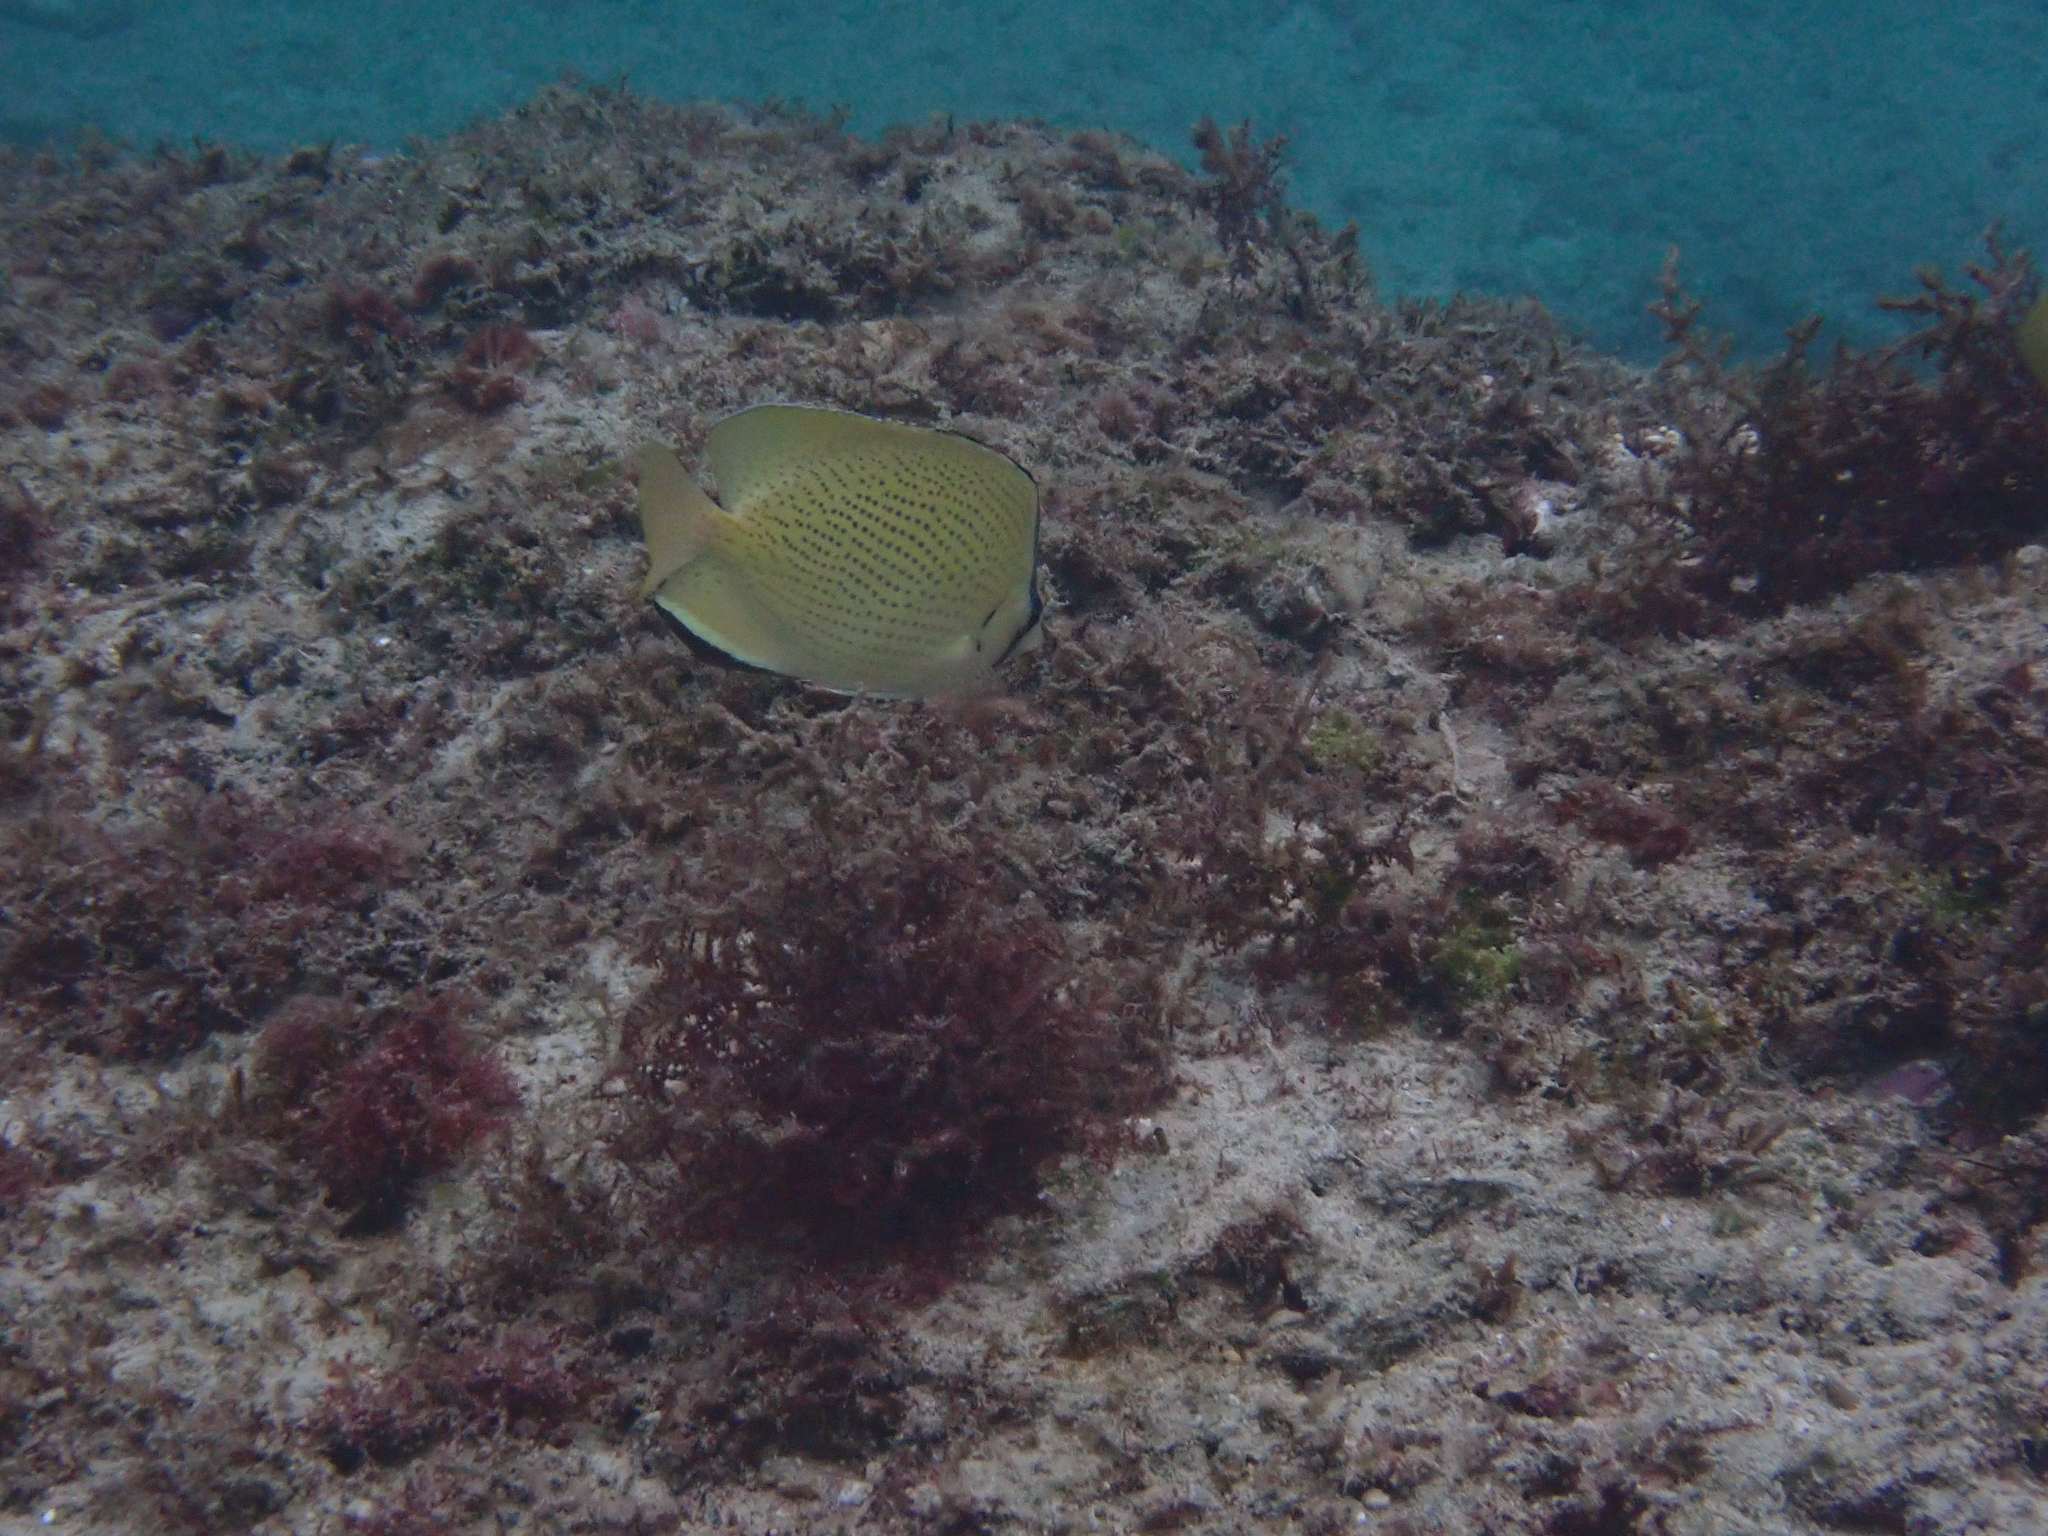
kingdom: Animalia
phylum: Chordata
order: Perciformes
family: Chaetodontidae
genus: Chaetodon
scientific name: Chaetodon citrinellus
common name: Speckled butterflyfish
